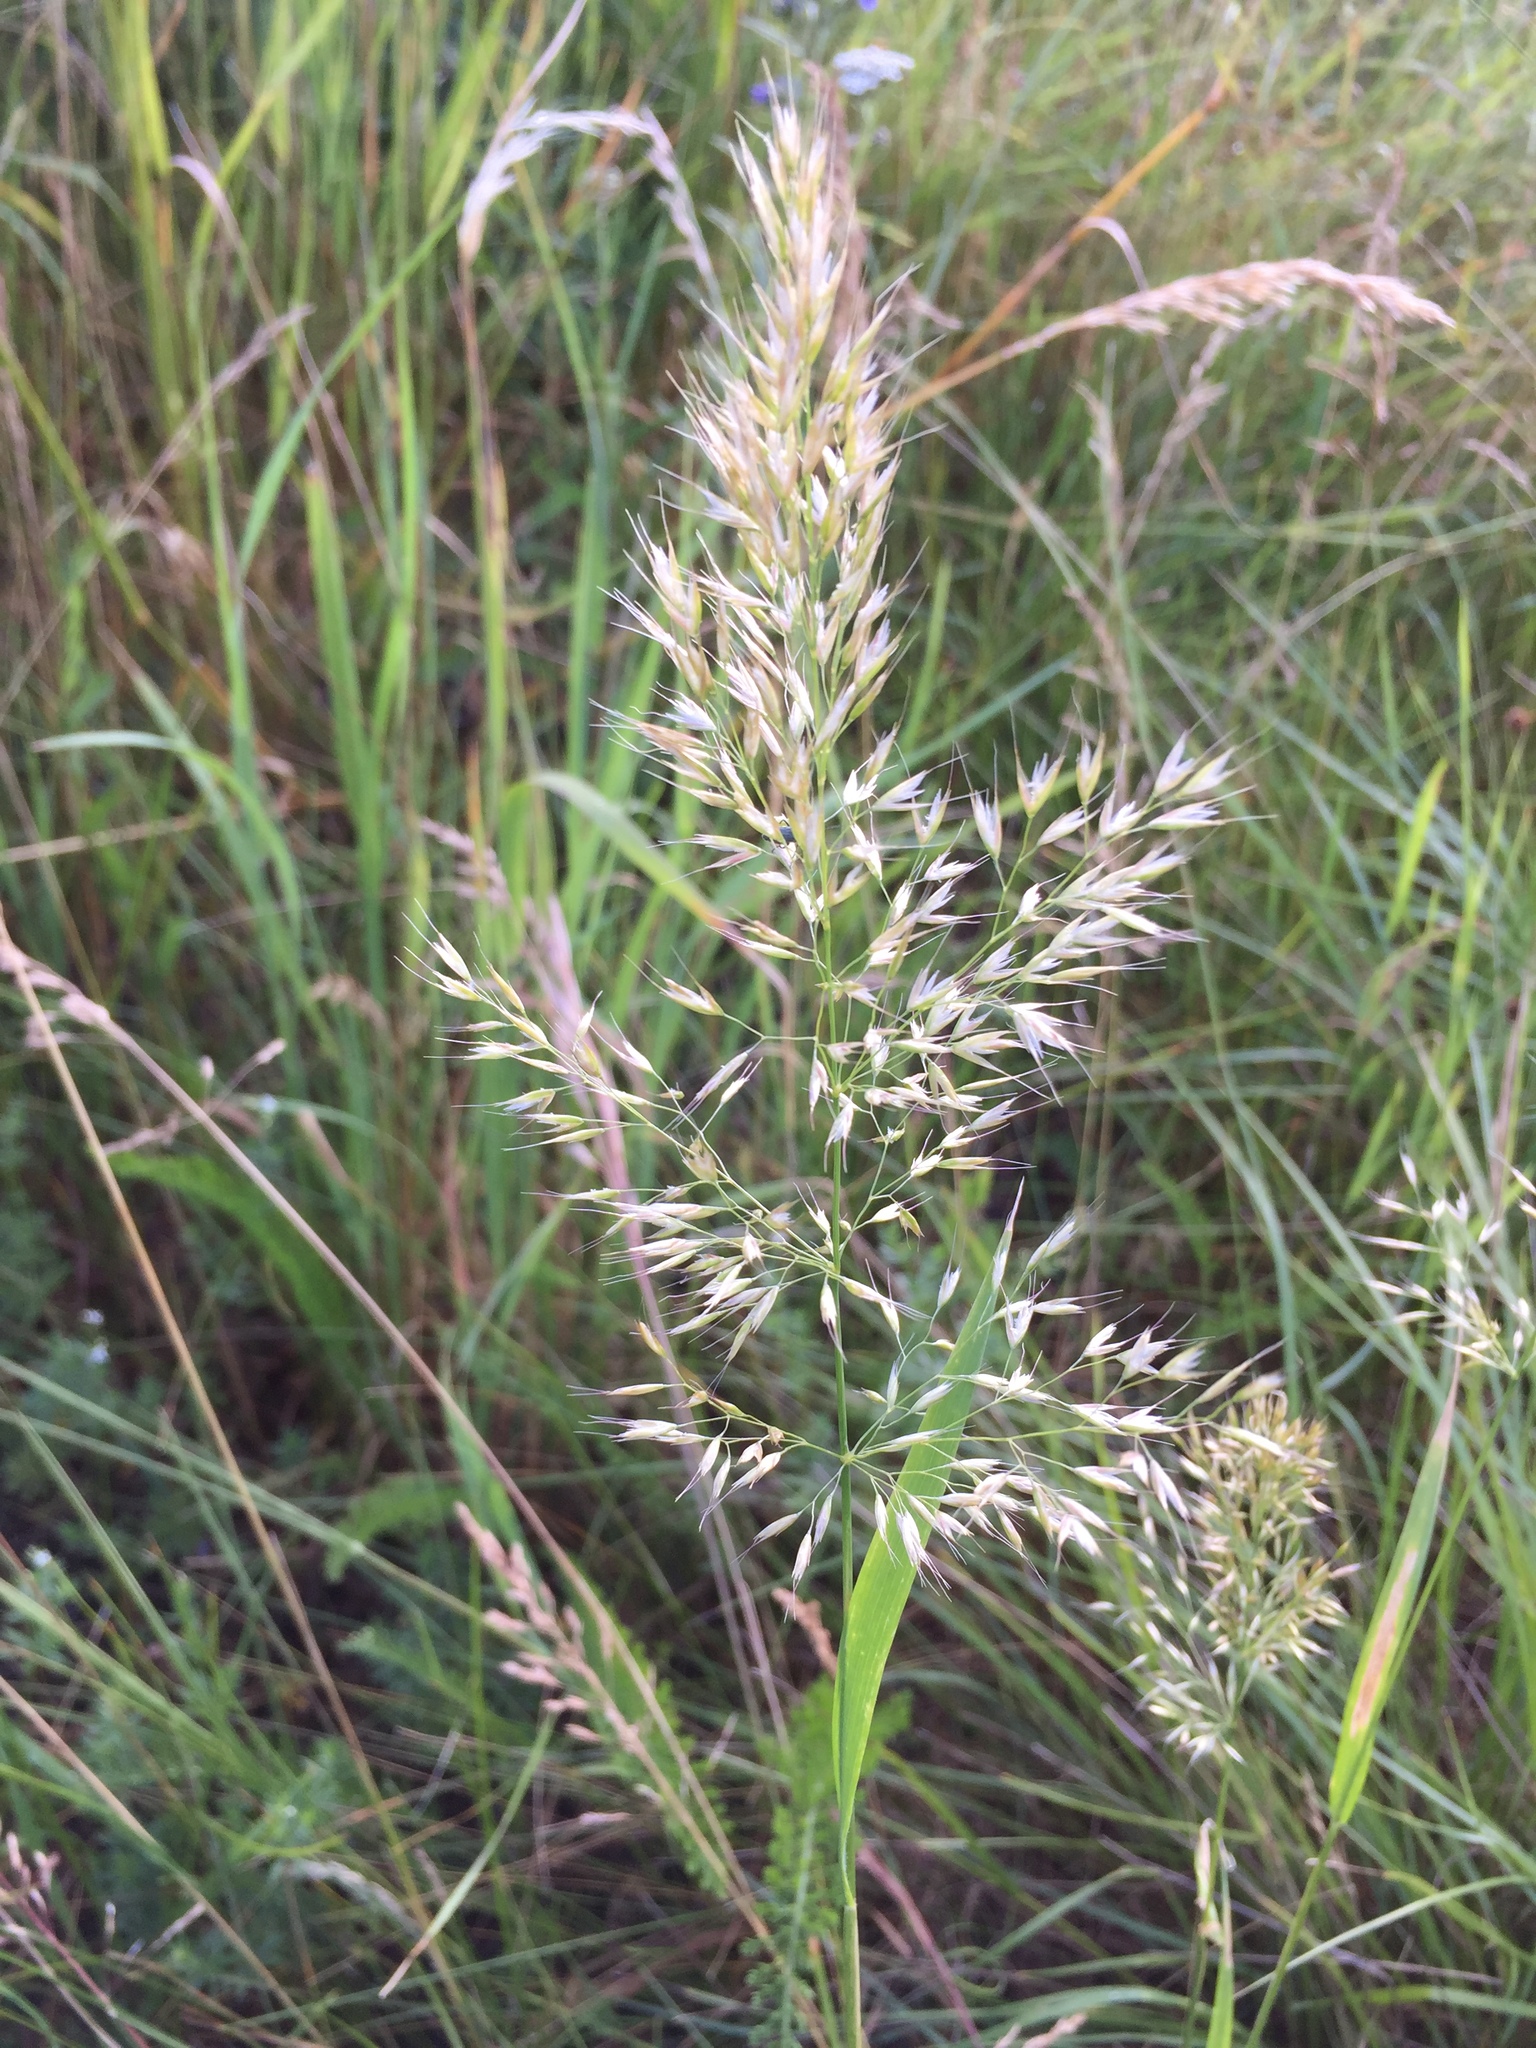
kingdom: Plantae
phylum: Tracheophyta
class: Liliopsida
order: Poales
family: Poaceae
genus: Trisetum
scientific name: Trisetum flavescens
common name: Yellow oat-grass
